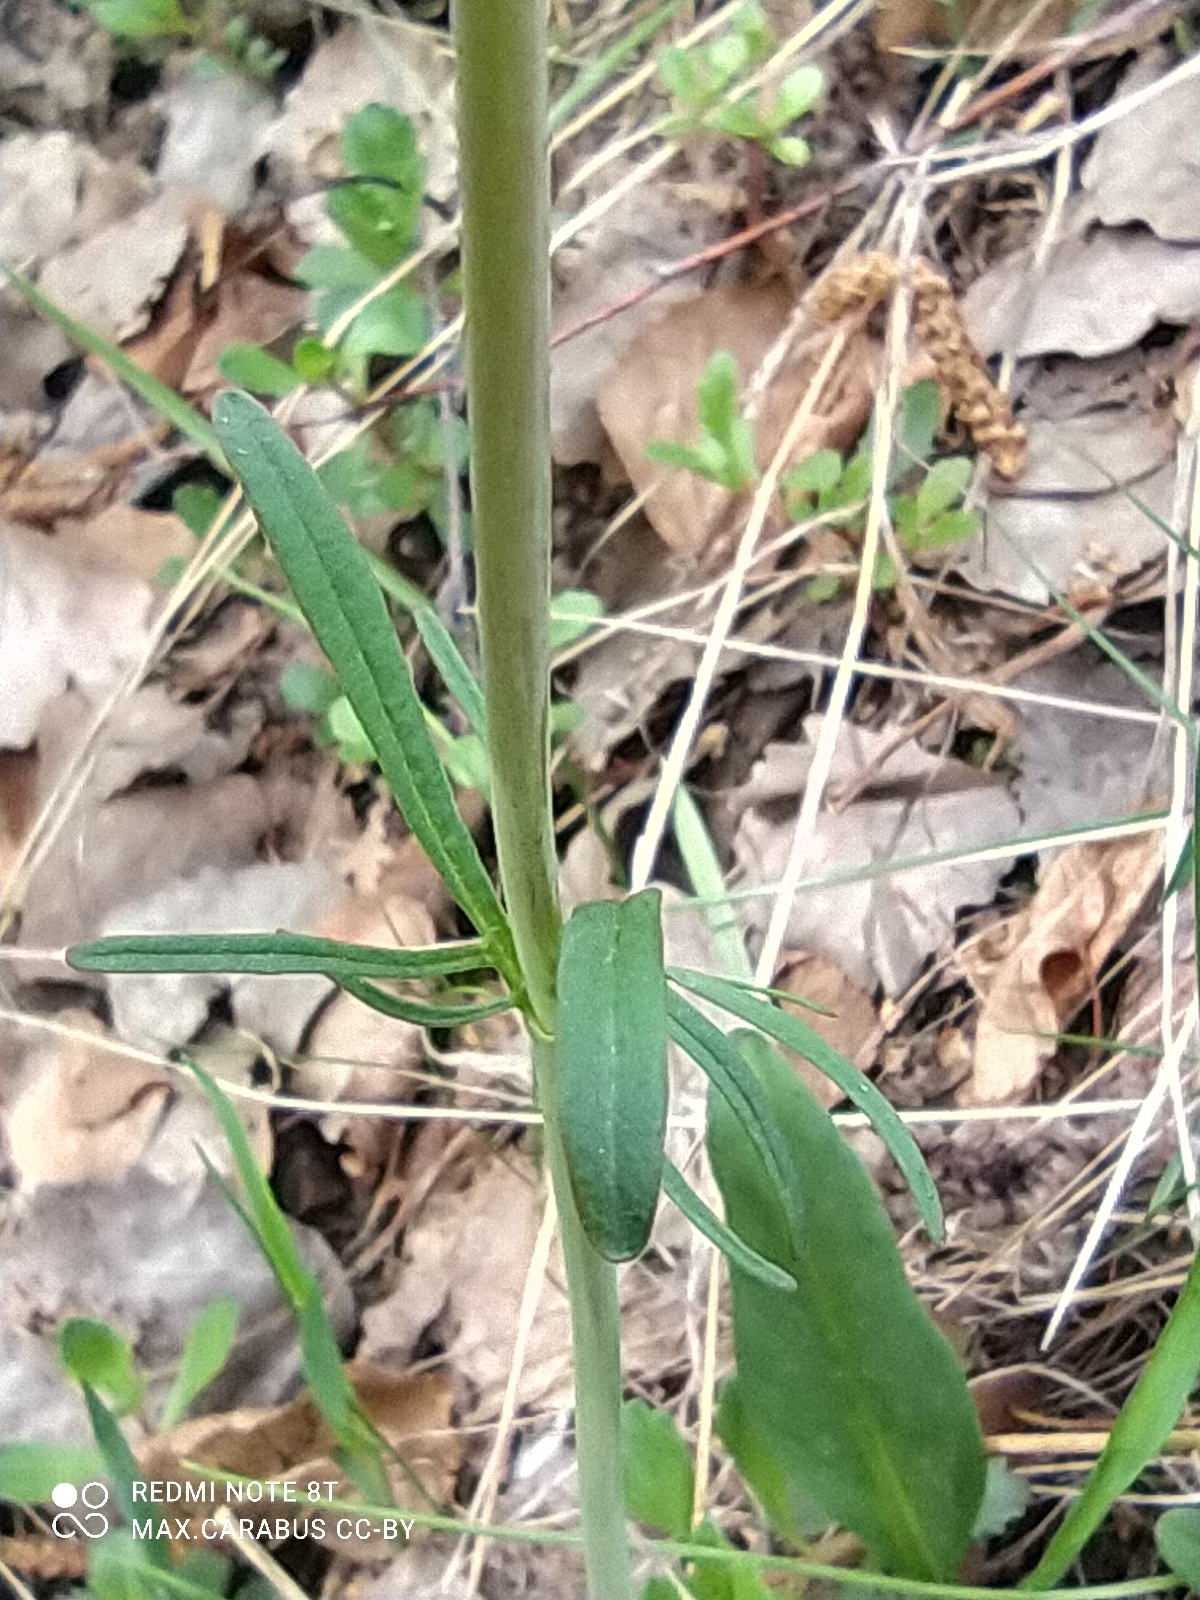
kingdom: Plantae
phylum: Tracheophyta
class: Magnoliopsida
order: Dipsacales
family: Caprifoliaceae
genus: Valeriana
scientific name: Valeriana tuberosa
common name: Tuberous valerian
